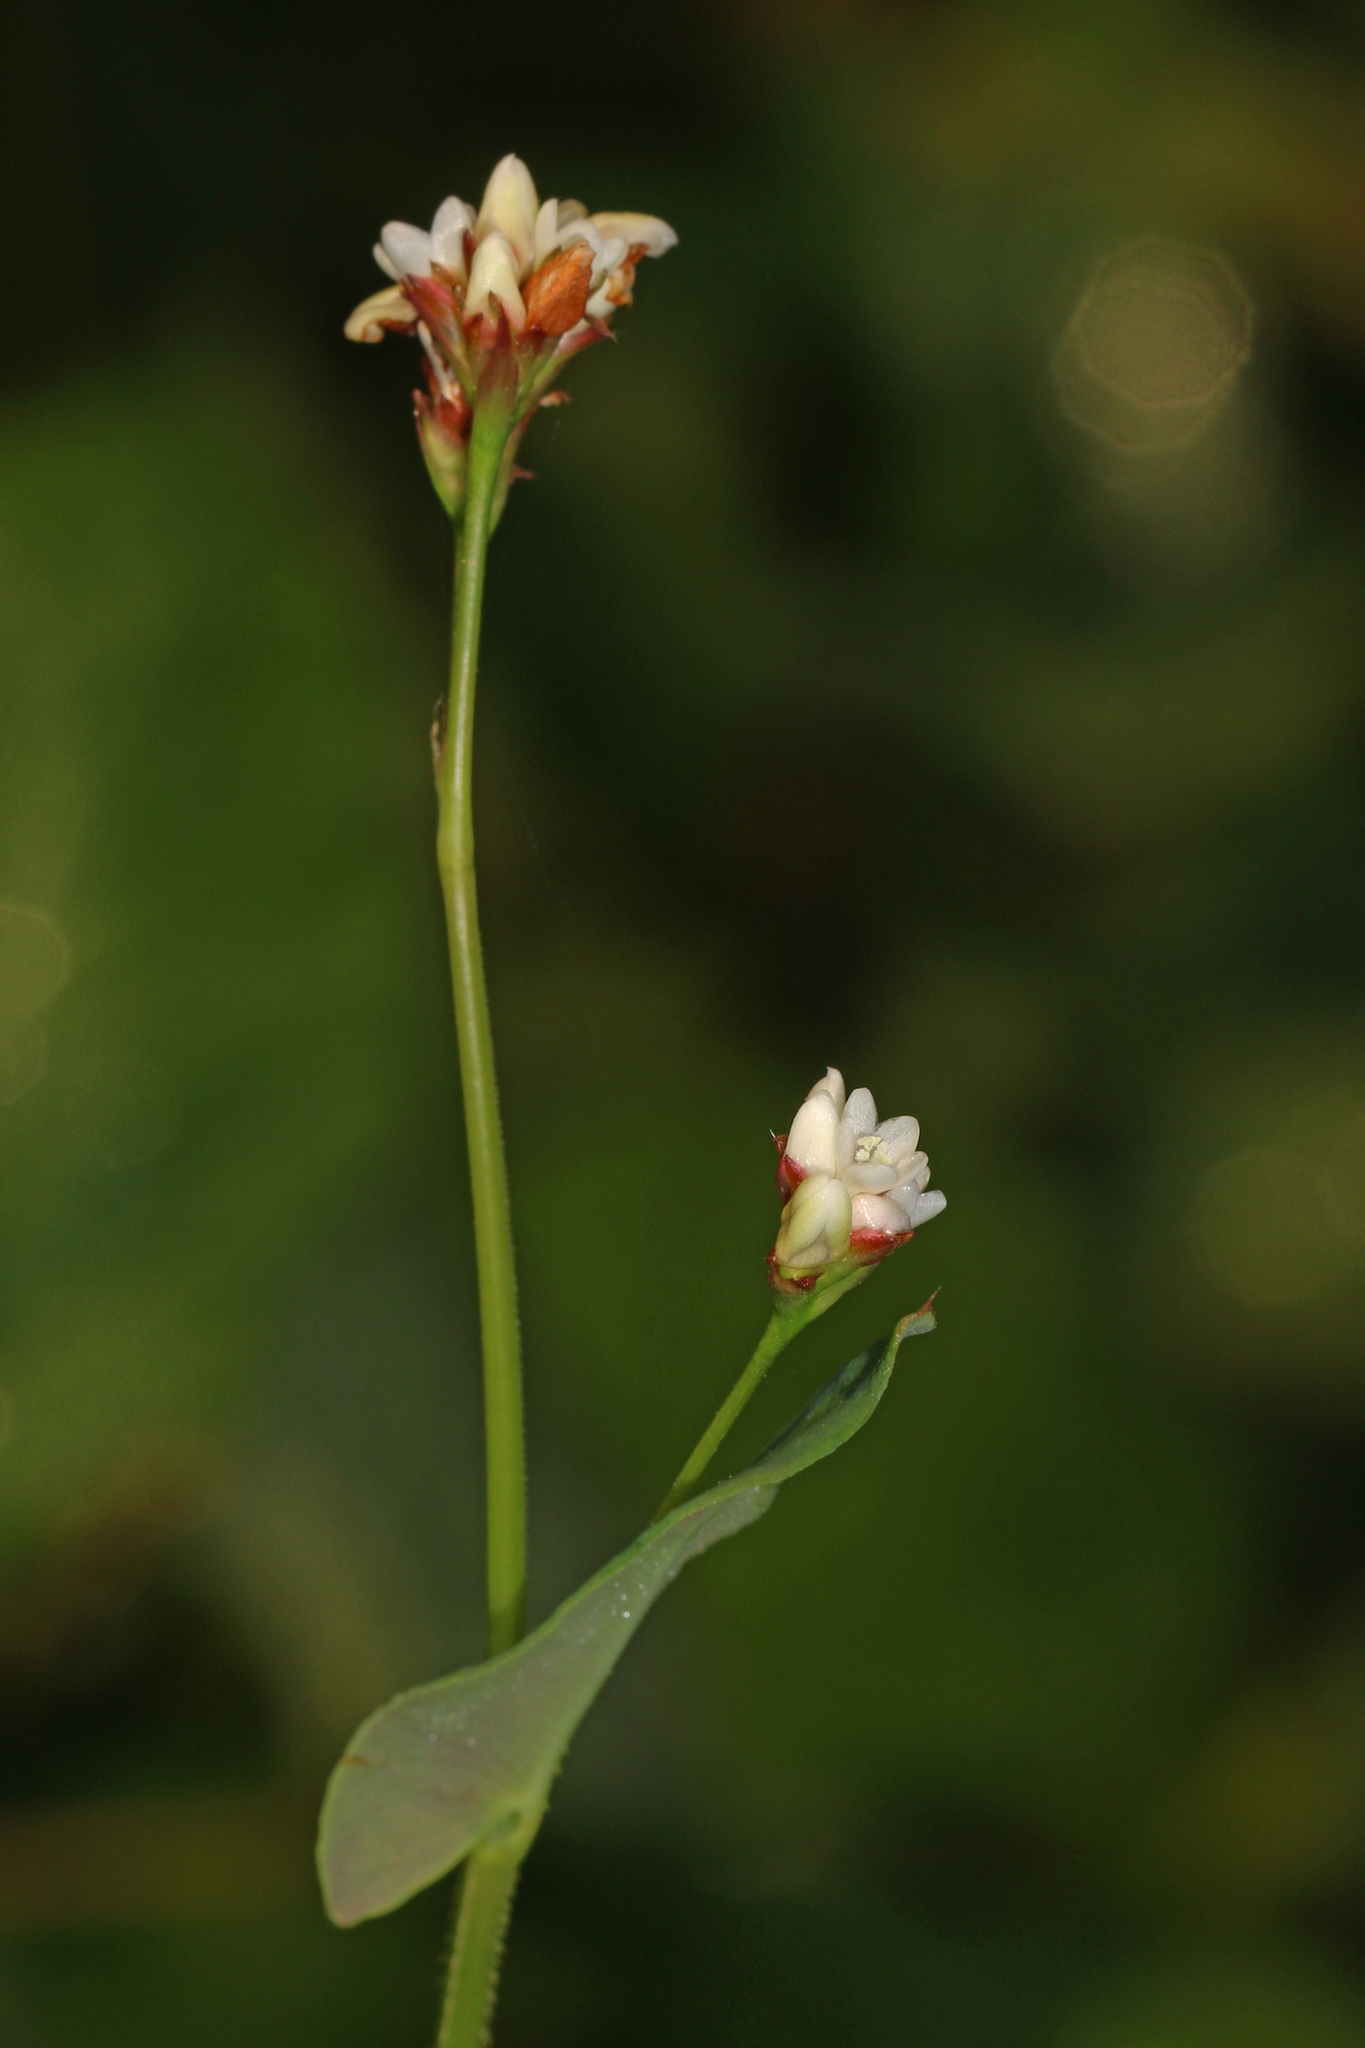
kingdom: Plantae
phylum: Tracheophyta
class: Magnoliopsida
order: Caryophyllales
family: Polygonaceae
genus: Persicaria
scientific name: Persicaria sagittata
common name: American tearthumb
